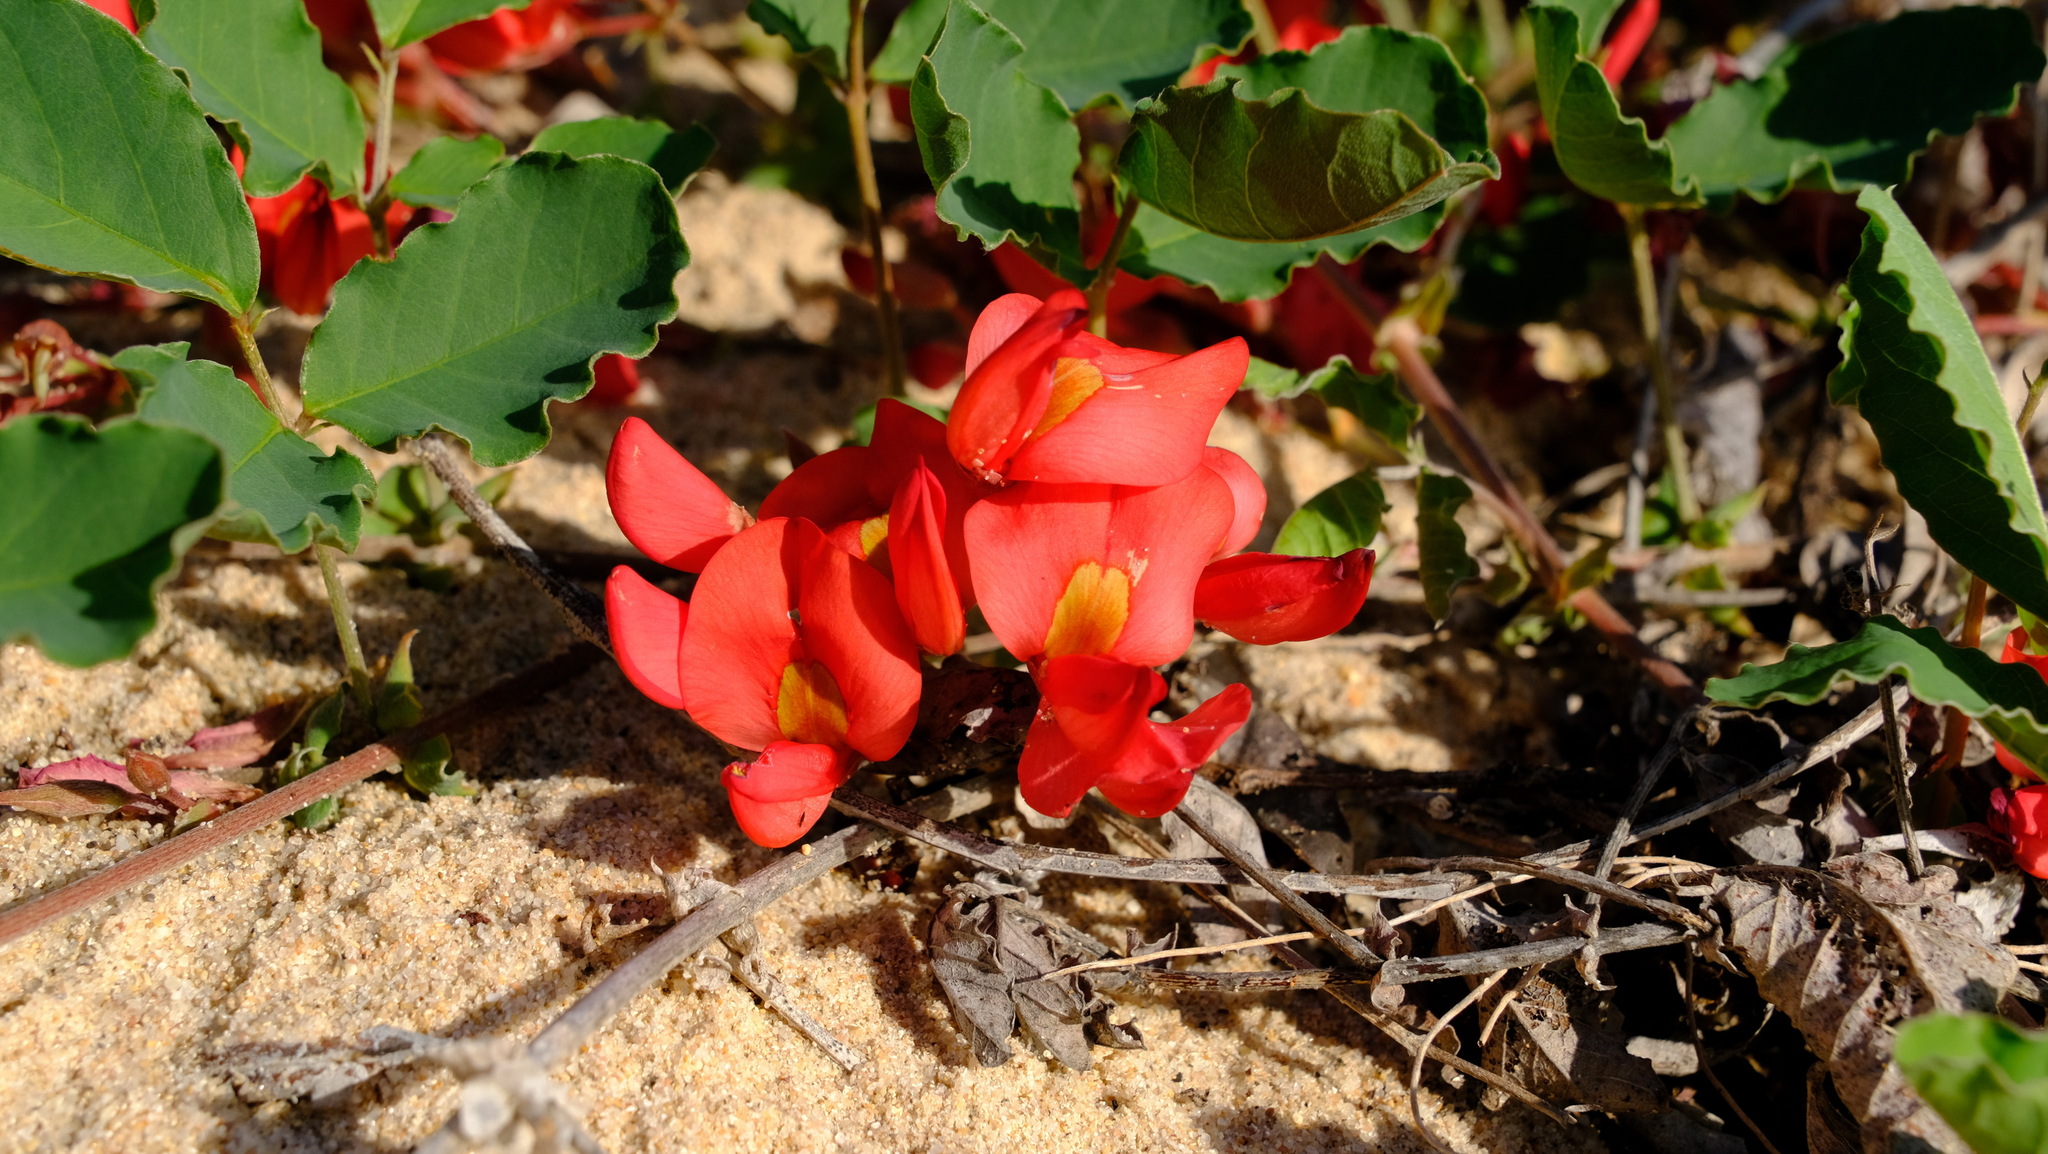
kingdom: Plantae
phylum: Tracheophyta
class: Magnoliopsida
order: Fabales
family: Fabaceae
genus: Kennedia
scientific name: Kennedia prostrata
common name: Running-postman
